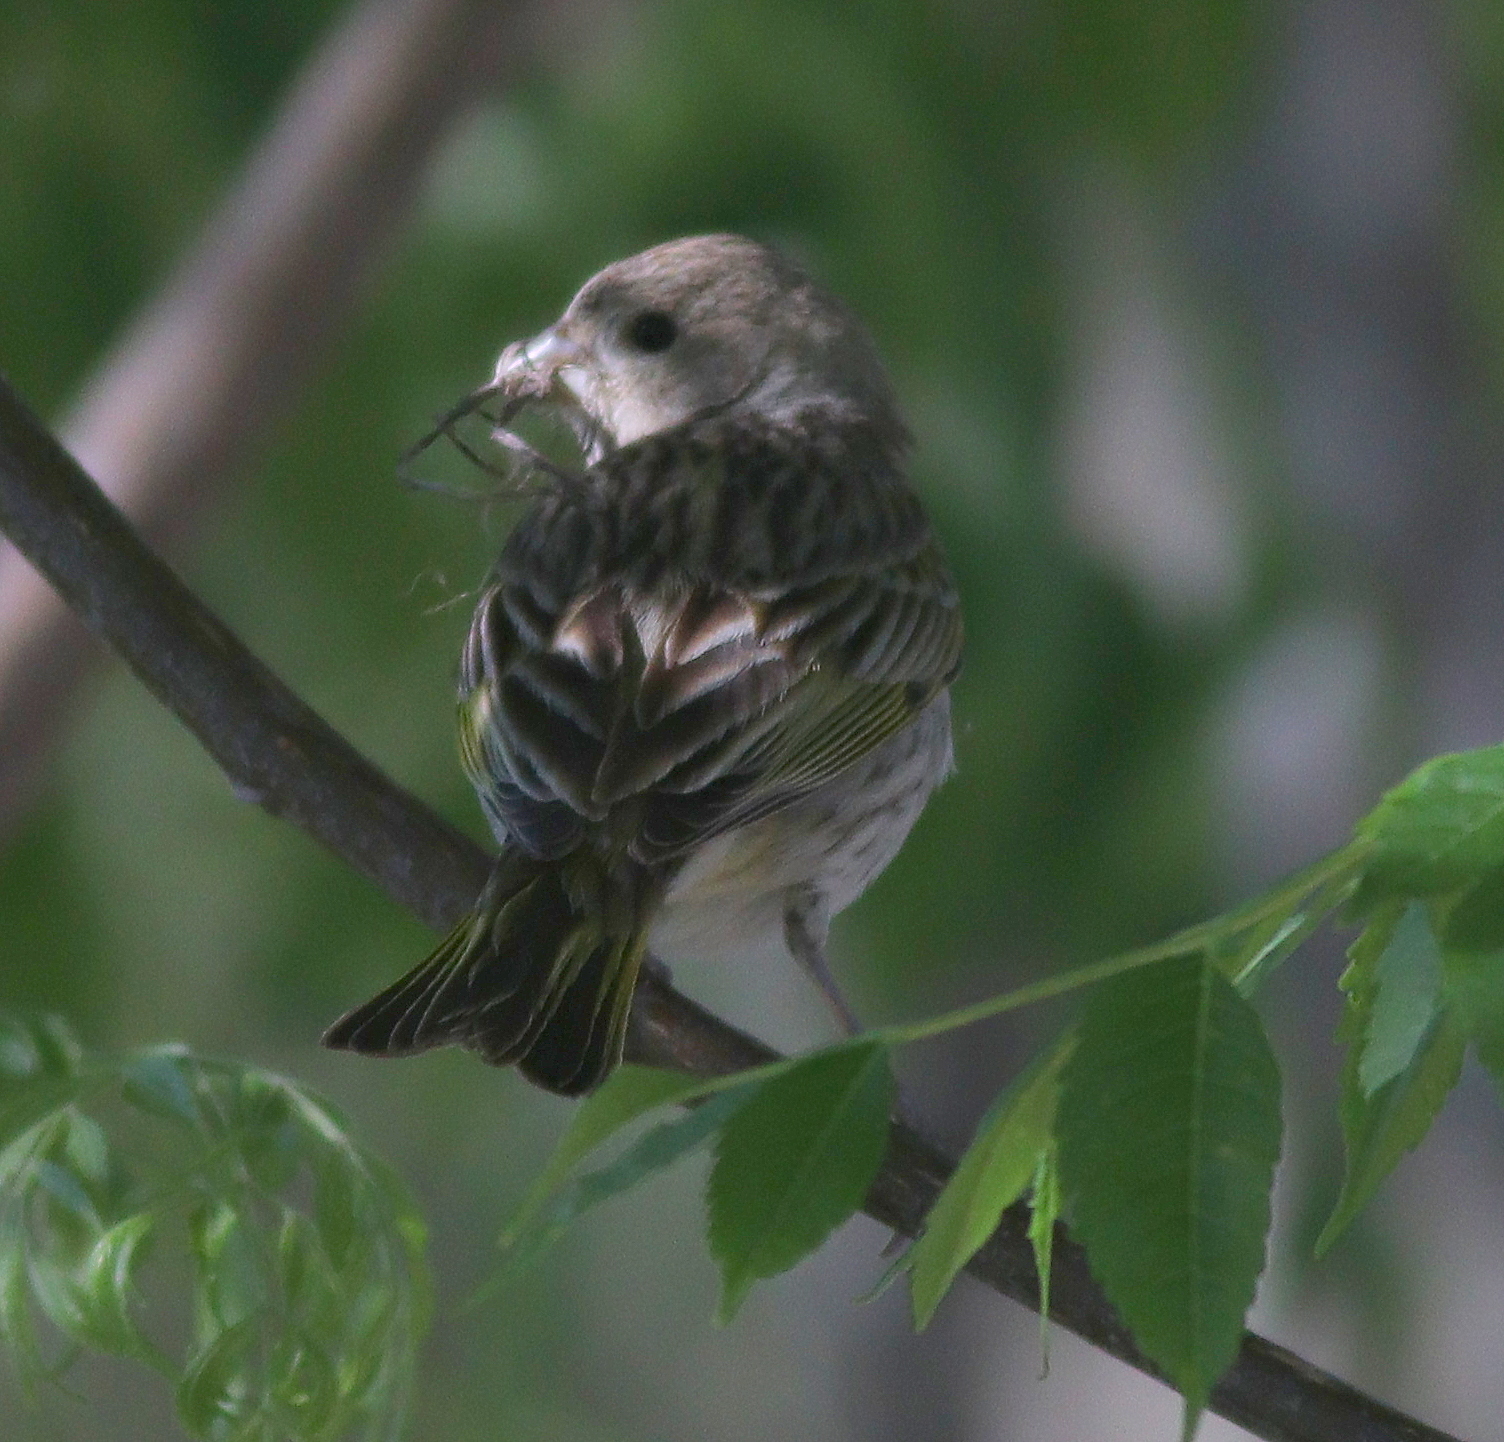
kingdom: Animalia
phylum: Chordata
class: Aves
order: Passeriformes
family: Thraupidae
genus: Sicalis
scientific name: Sicalis flaveola
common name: Saffron finch
